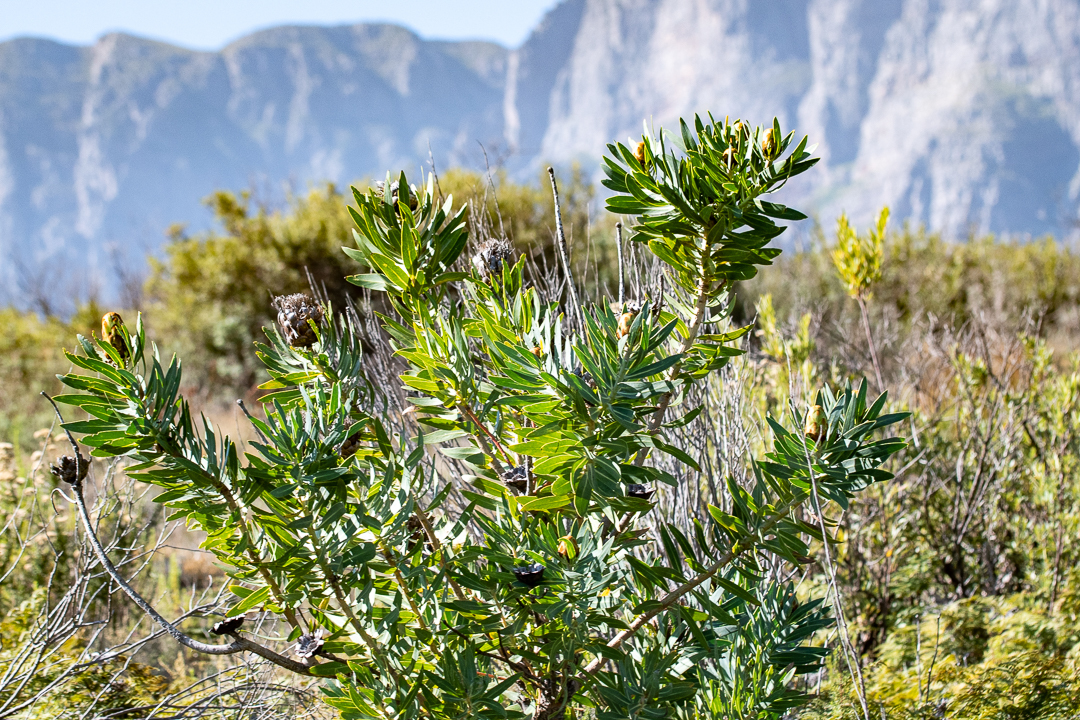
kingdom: Plantae
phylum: Tracheophyta
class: Magnoliopsida
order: Proteales
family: Proteaceae
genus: Protea
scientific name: Protea neriifolia
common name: Blue sugarbush
